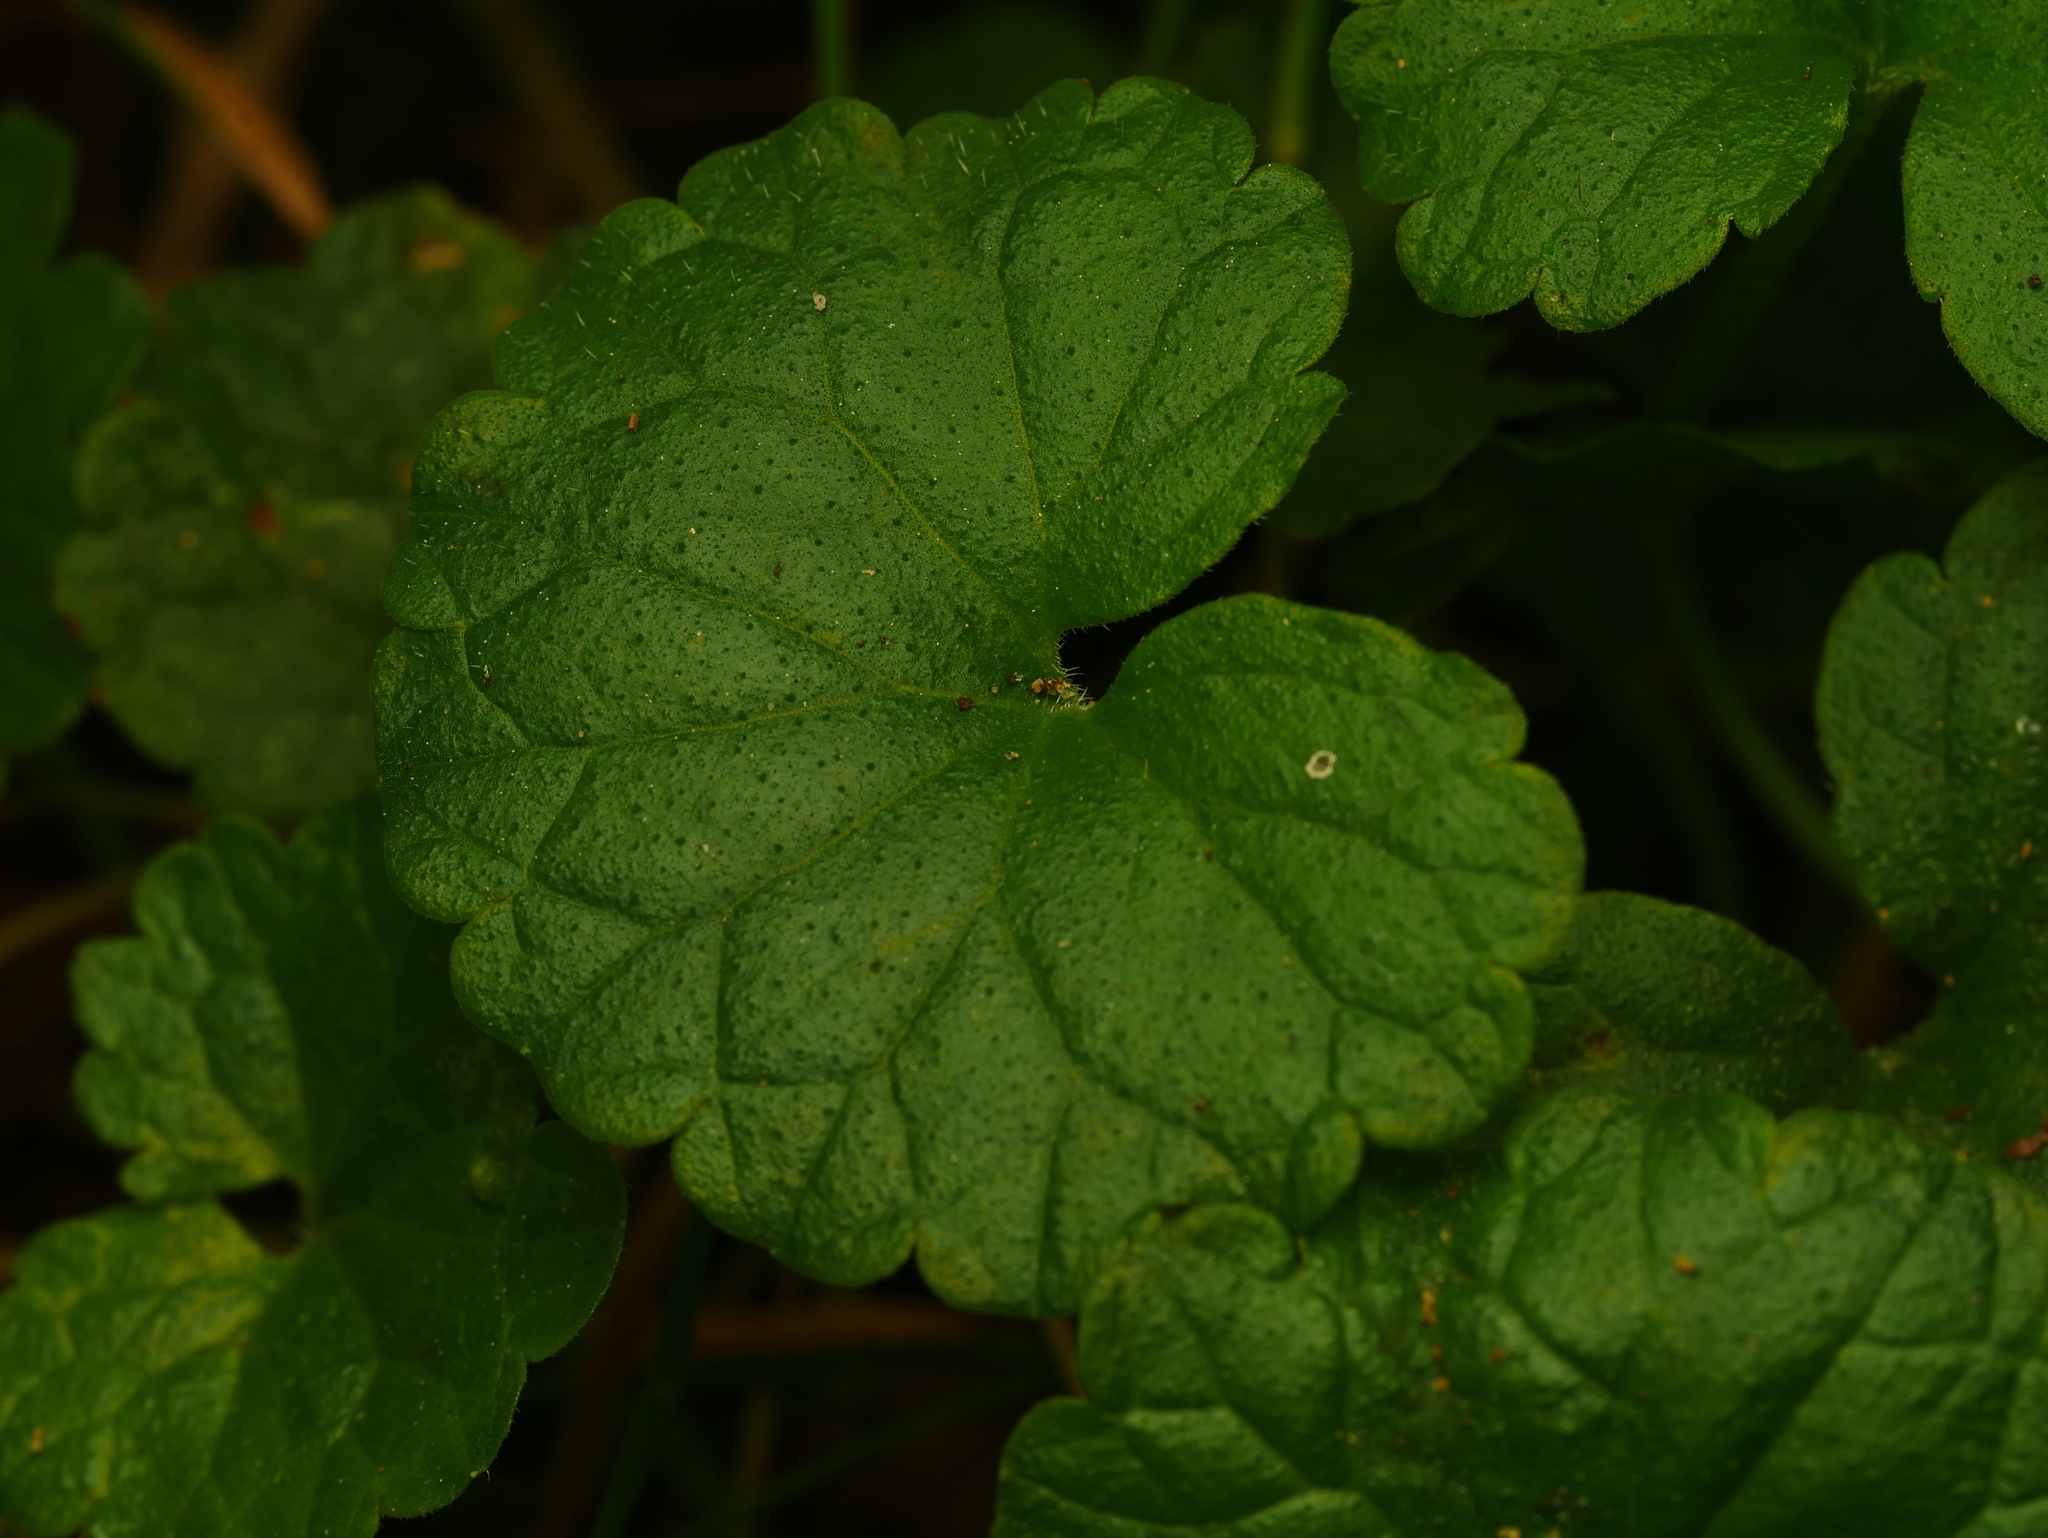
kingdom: Plantae
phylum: Tracheophyta
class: Magnoliopsida
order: Lamiales
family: Lamiaceae
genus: Glechoma
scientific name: Glechoma hederacea
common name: Ground ivy
